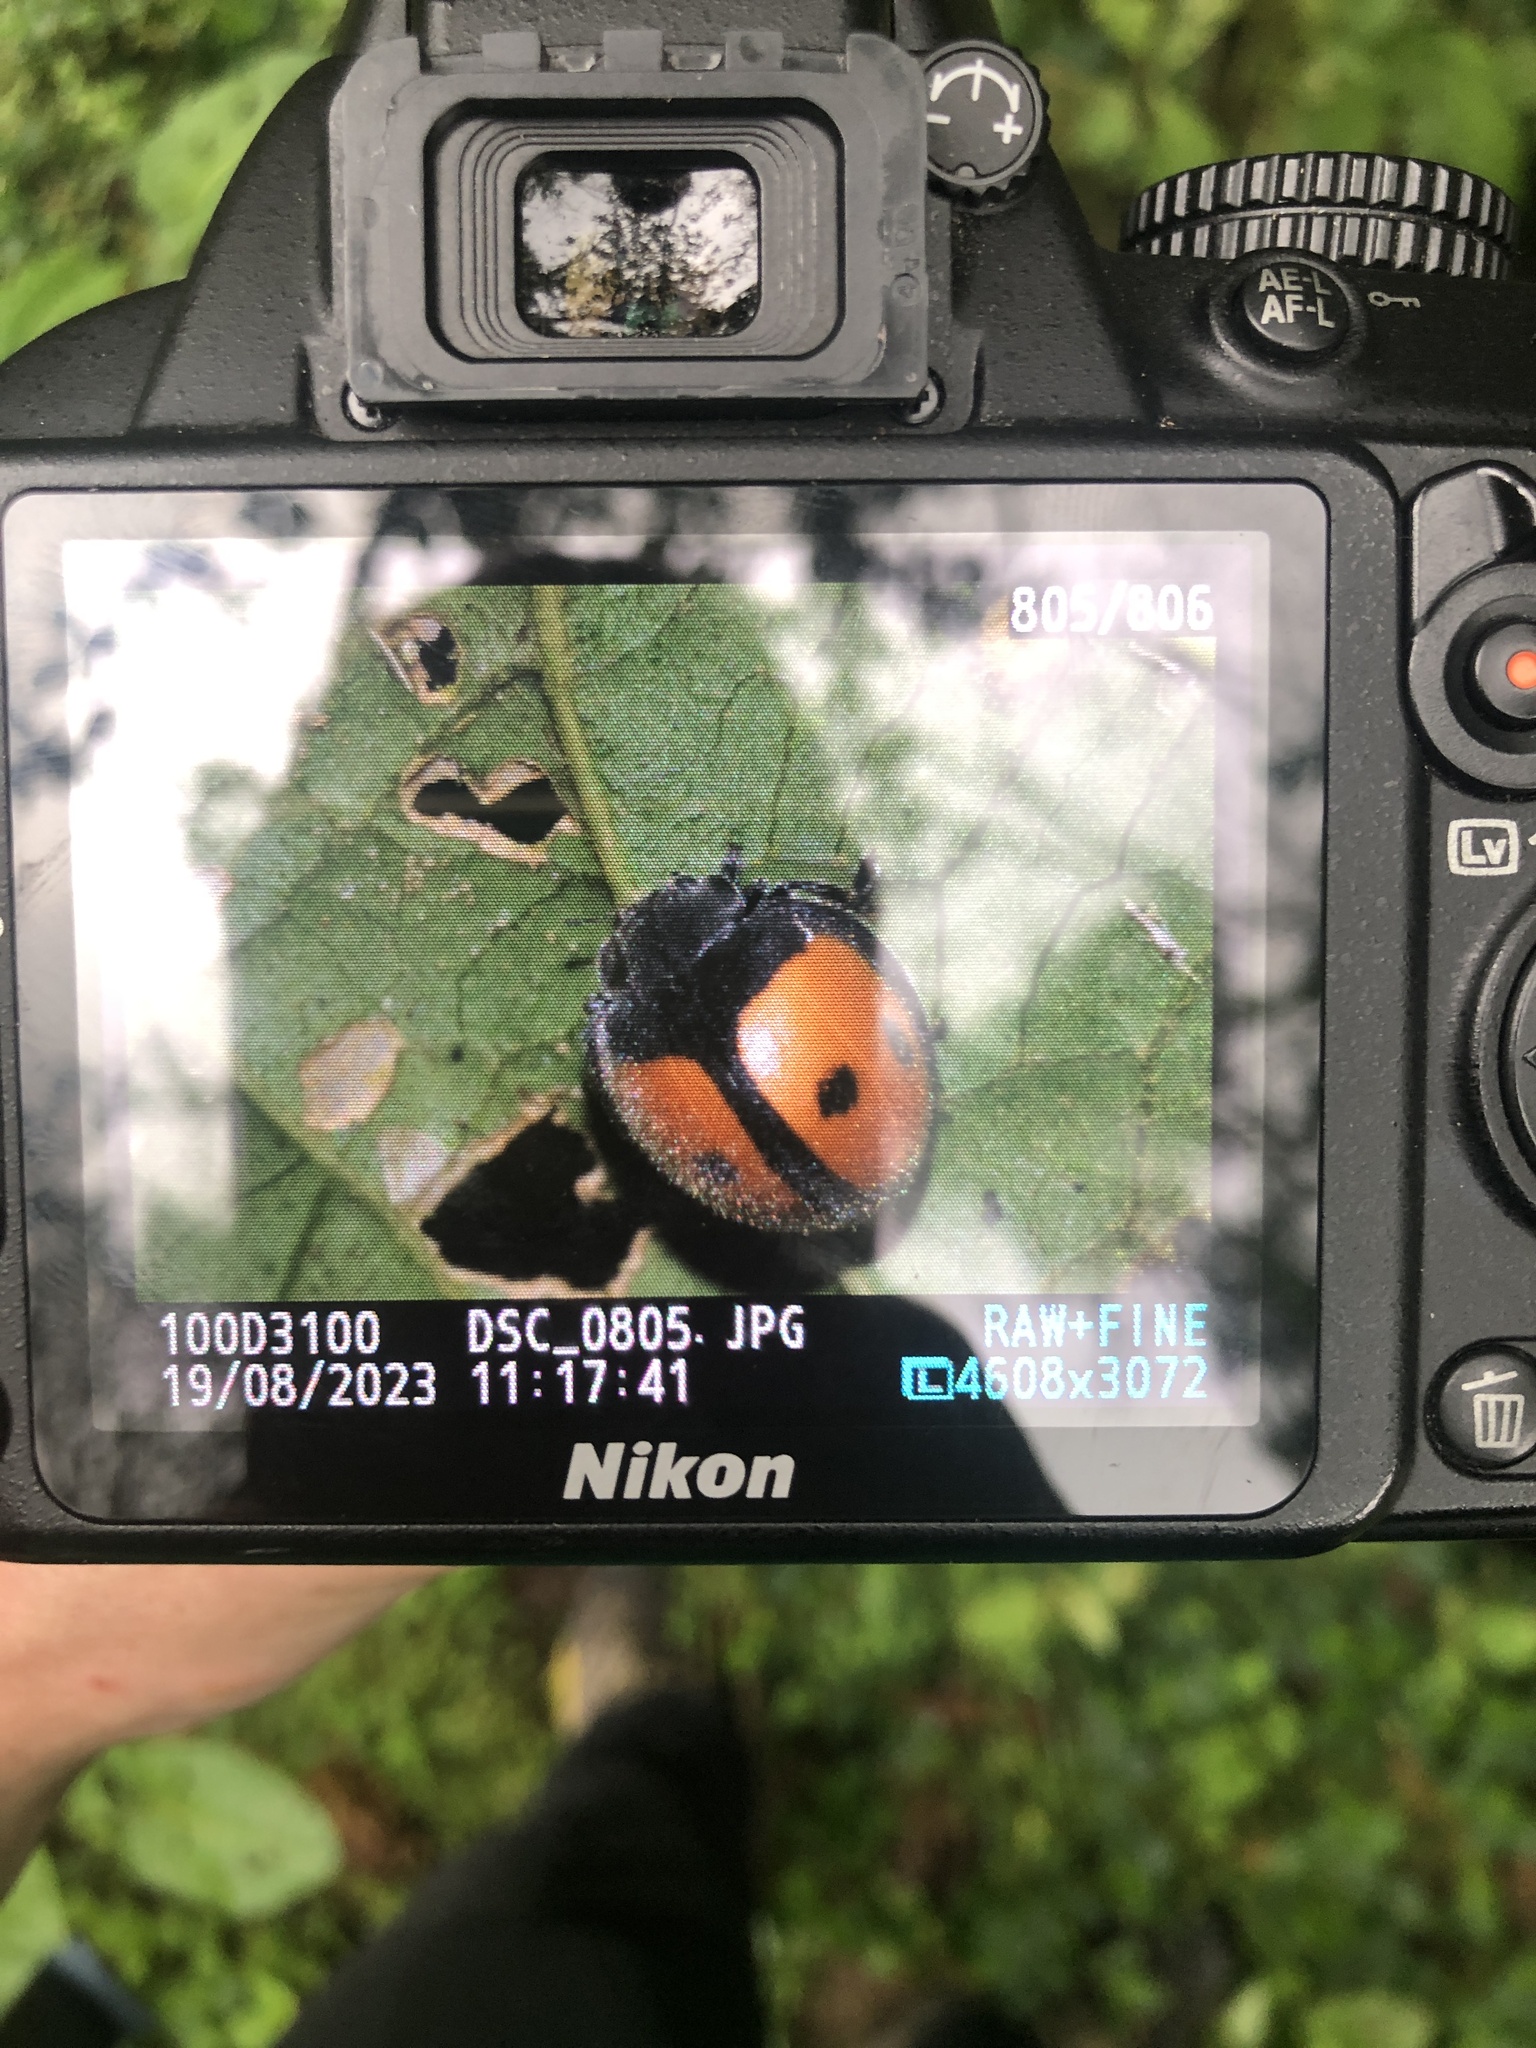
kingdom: Animalia
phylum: Arthropoda
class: Insecta
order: Coleoptera
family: Coccinellidae
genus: Epilachna
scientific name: Epilachna
